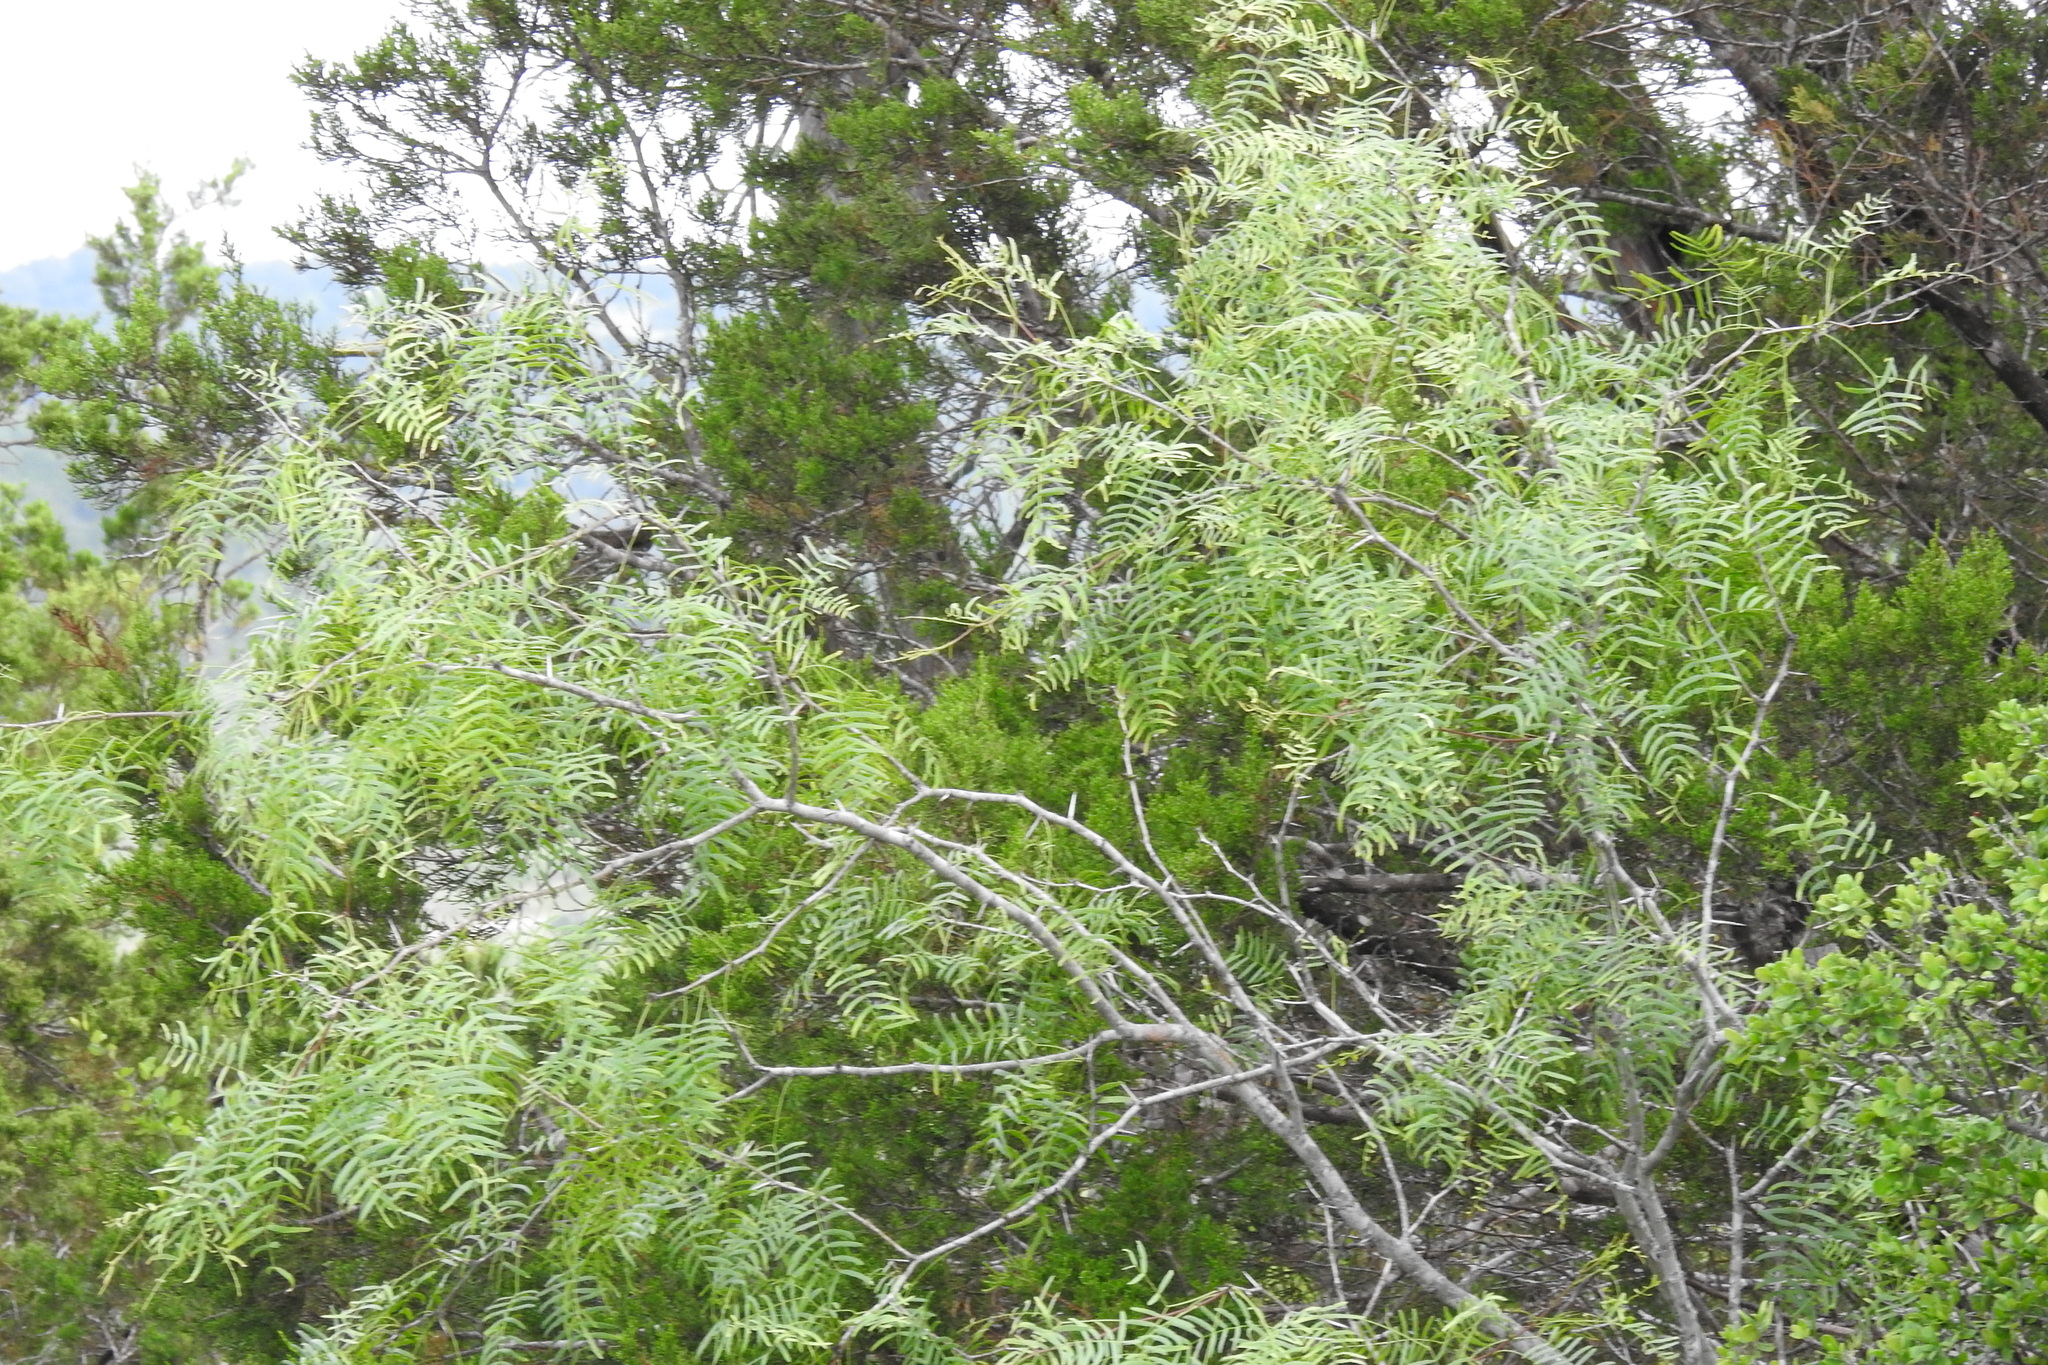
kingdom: Plantae
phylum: Tracheophyta
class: Magnoliopsida
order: Fabales
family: Fabaceae
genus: Prosopis
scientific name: Prosopis glandulosa
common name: Honey mesquite
